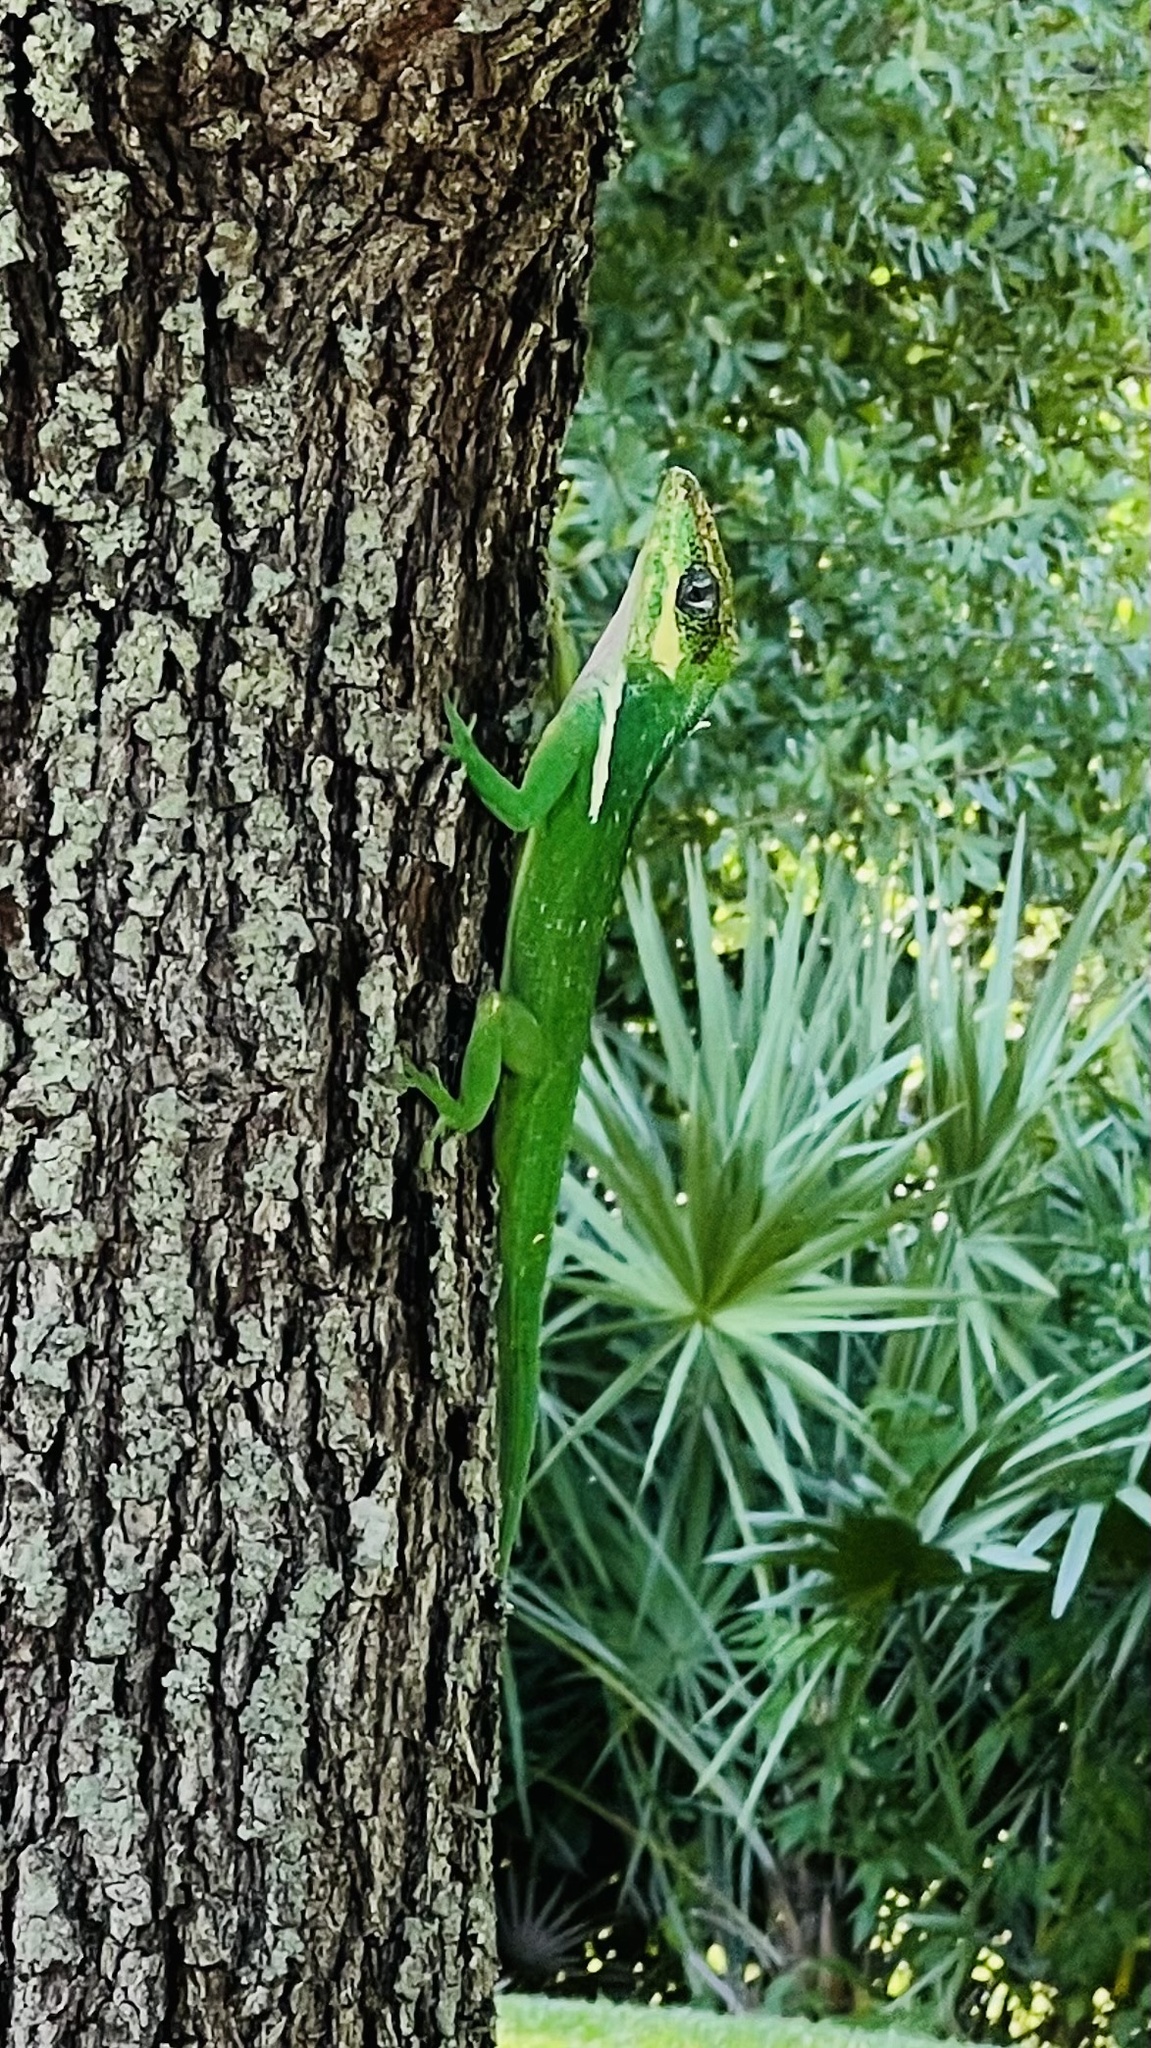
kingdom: Animalia
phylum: Chordata
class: Squamata
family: Dactyloidae
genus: Anolis
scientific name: Anolis equestris
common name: Knight anole
